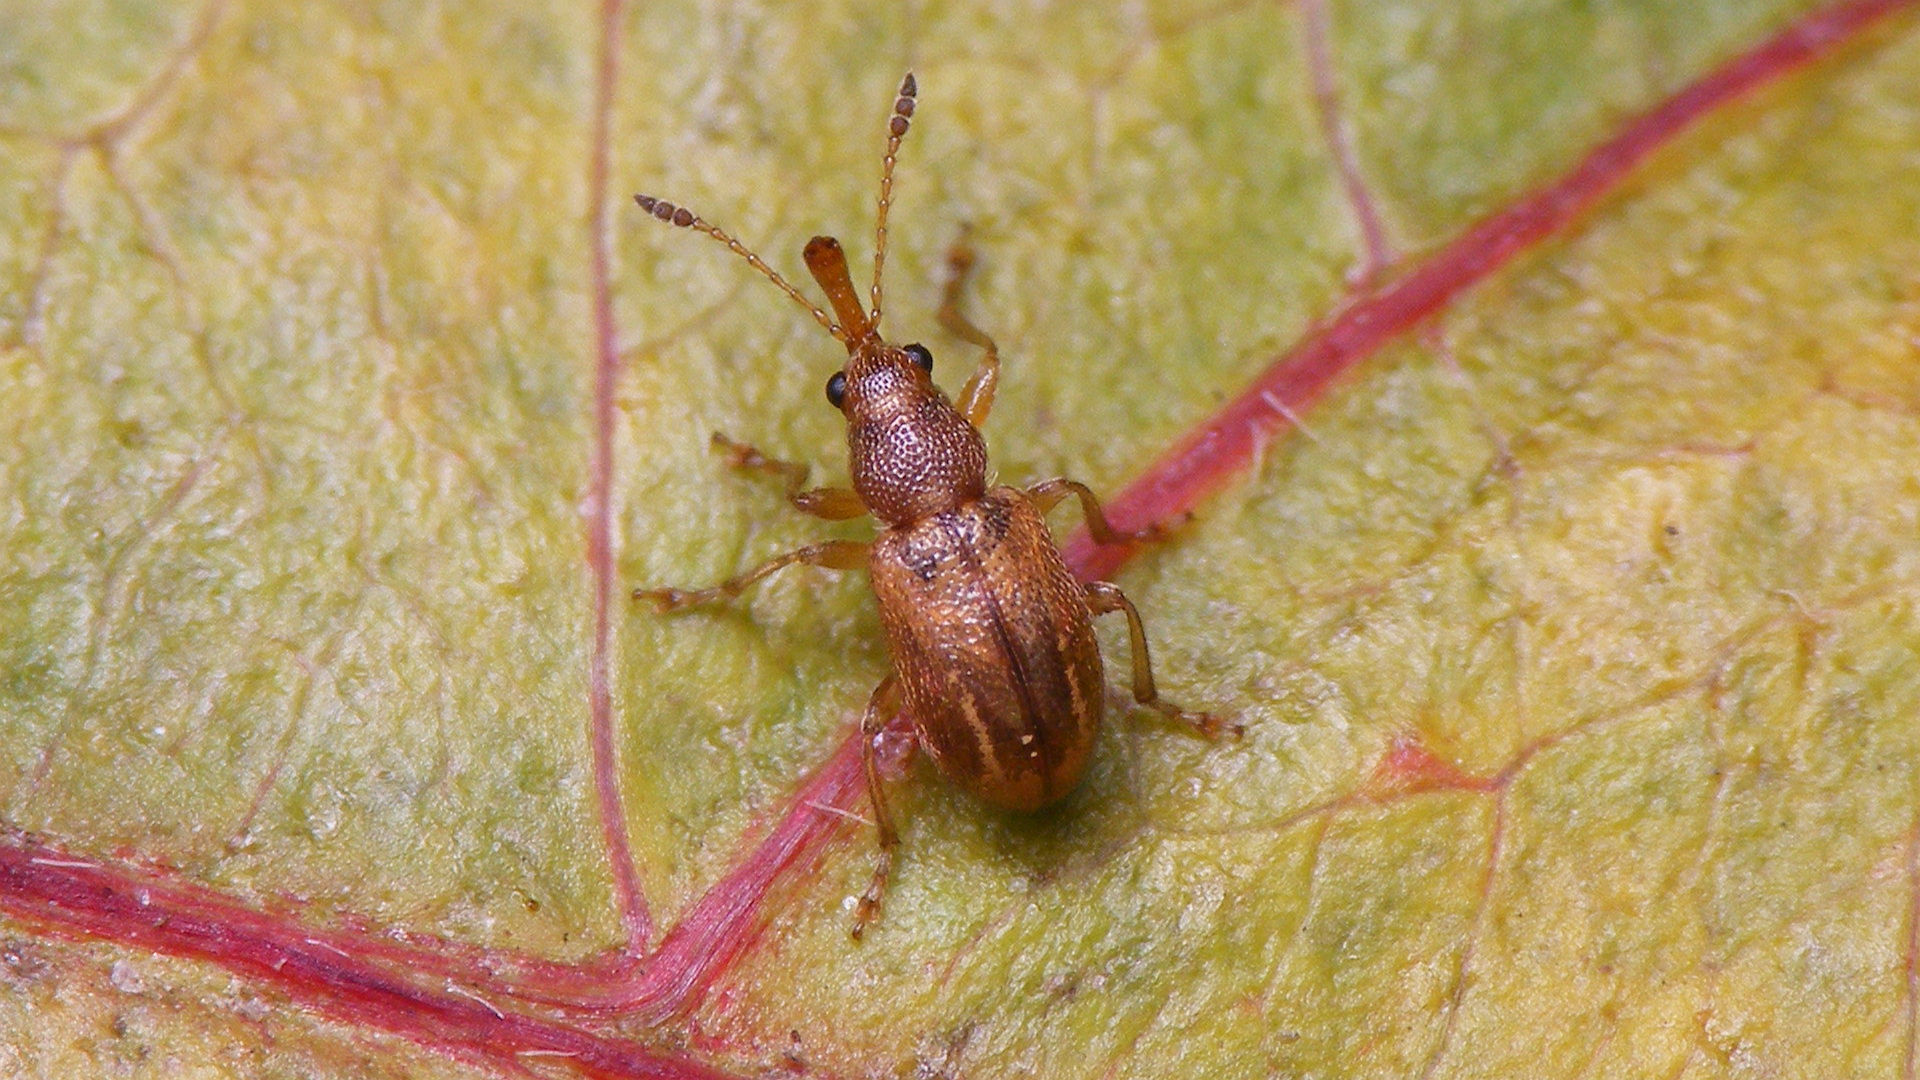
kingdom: Animalia
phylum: Arthropoda
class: Insecta
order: Coleoptera
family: Attelabidae
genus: Auletobius
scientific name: Auletobius anceps
